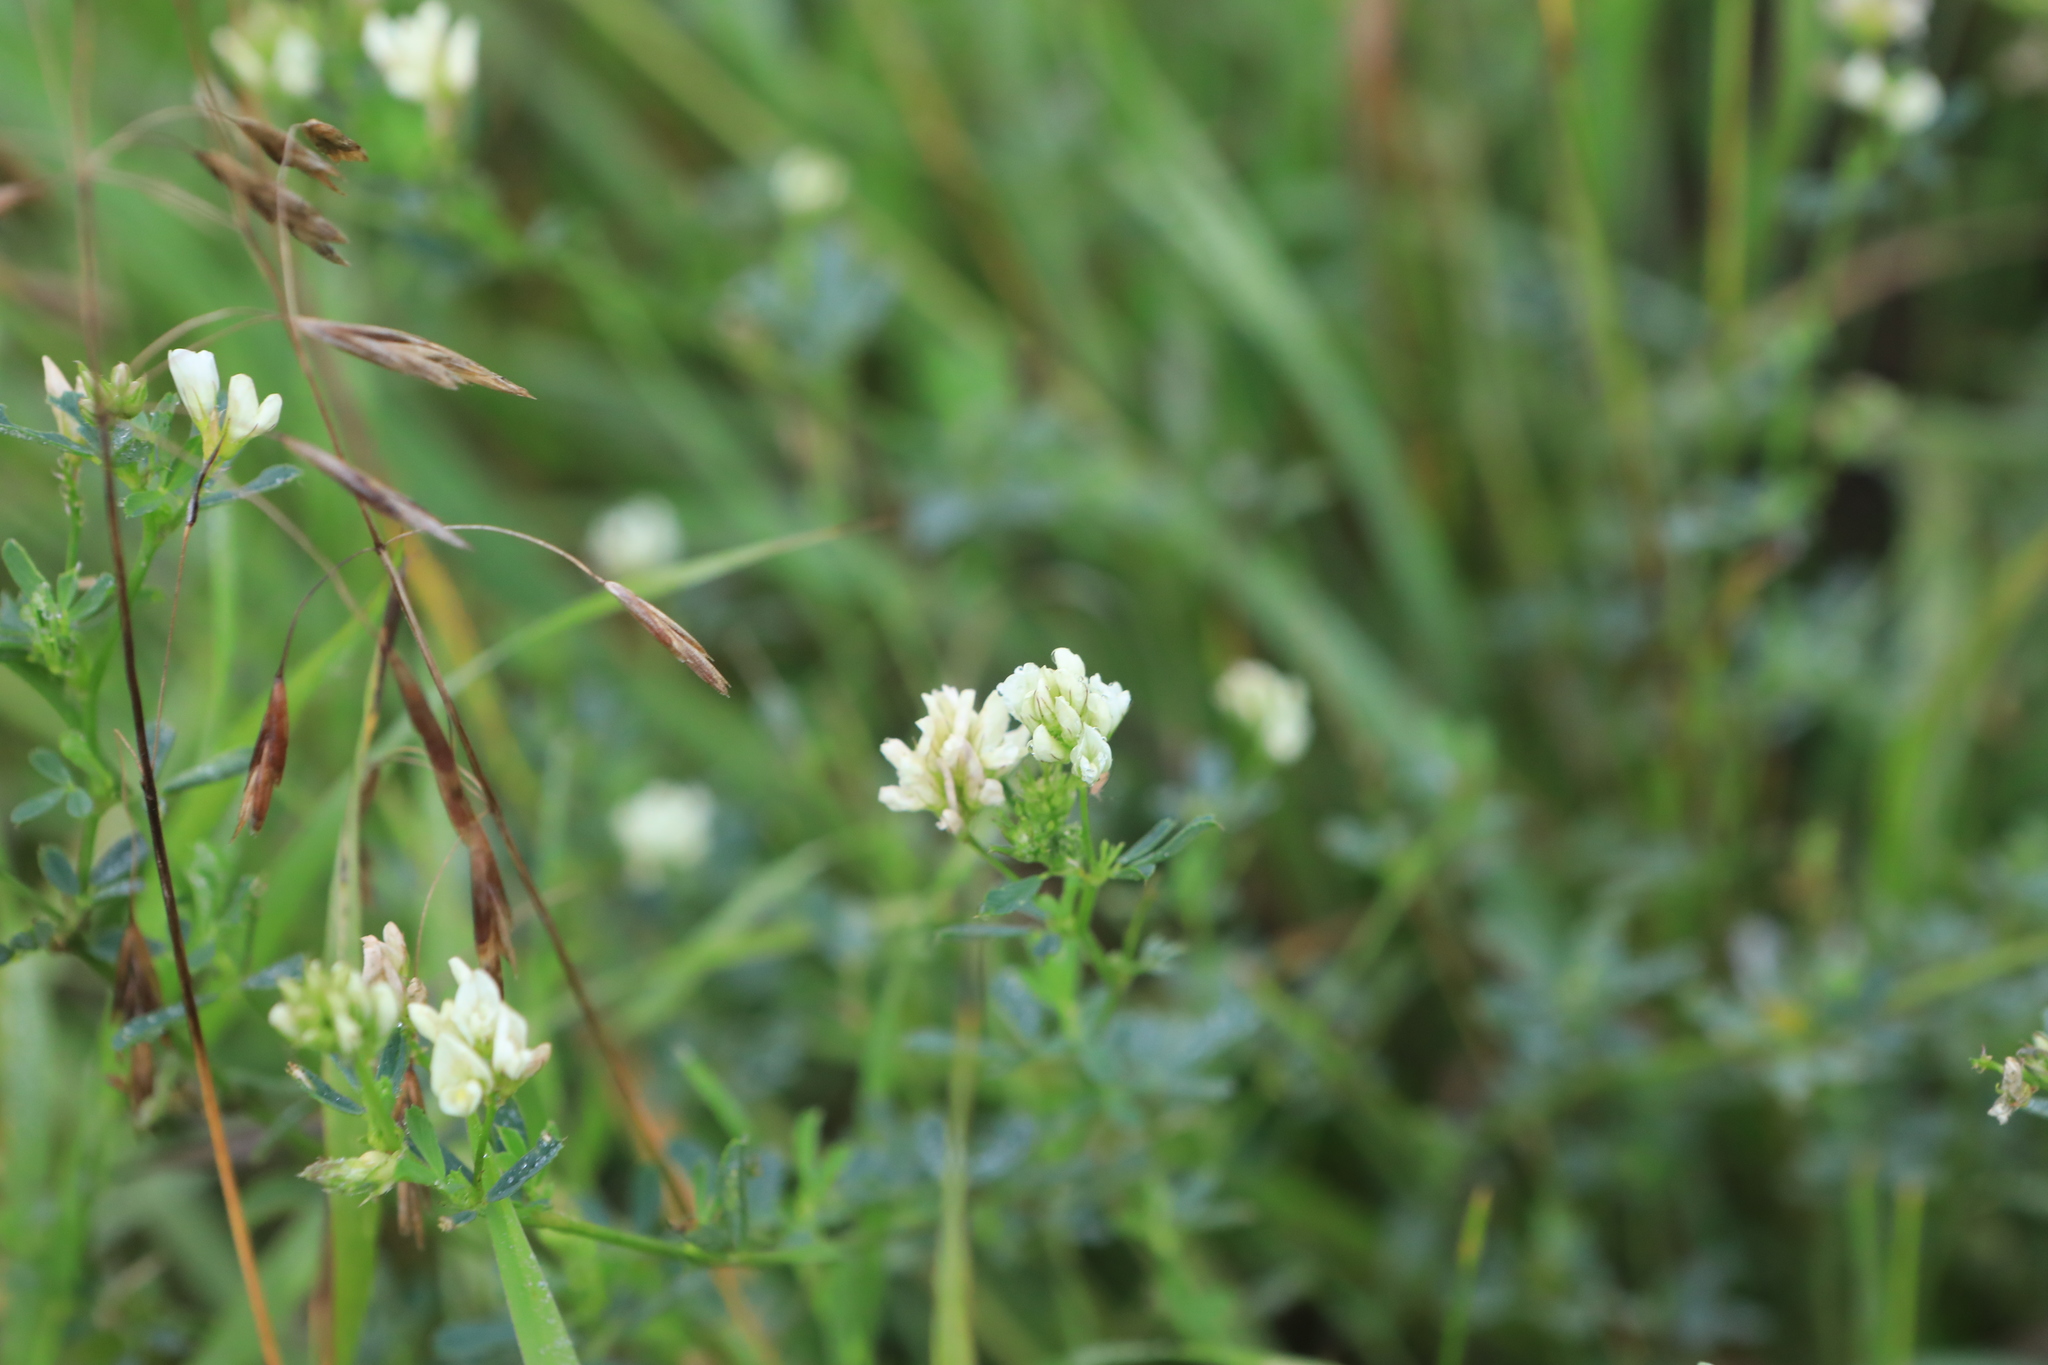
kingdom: Plantae
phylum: Tracheophyta
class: Magnoliopsida
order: Fabales
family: Fabaceae
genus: Medicago
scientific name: Medicago varia
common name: Sand lucerne
